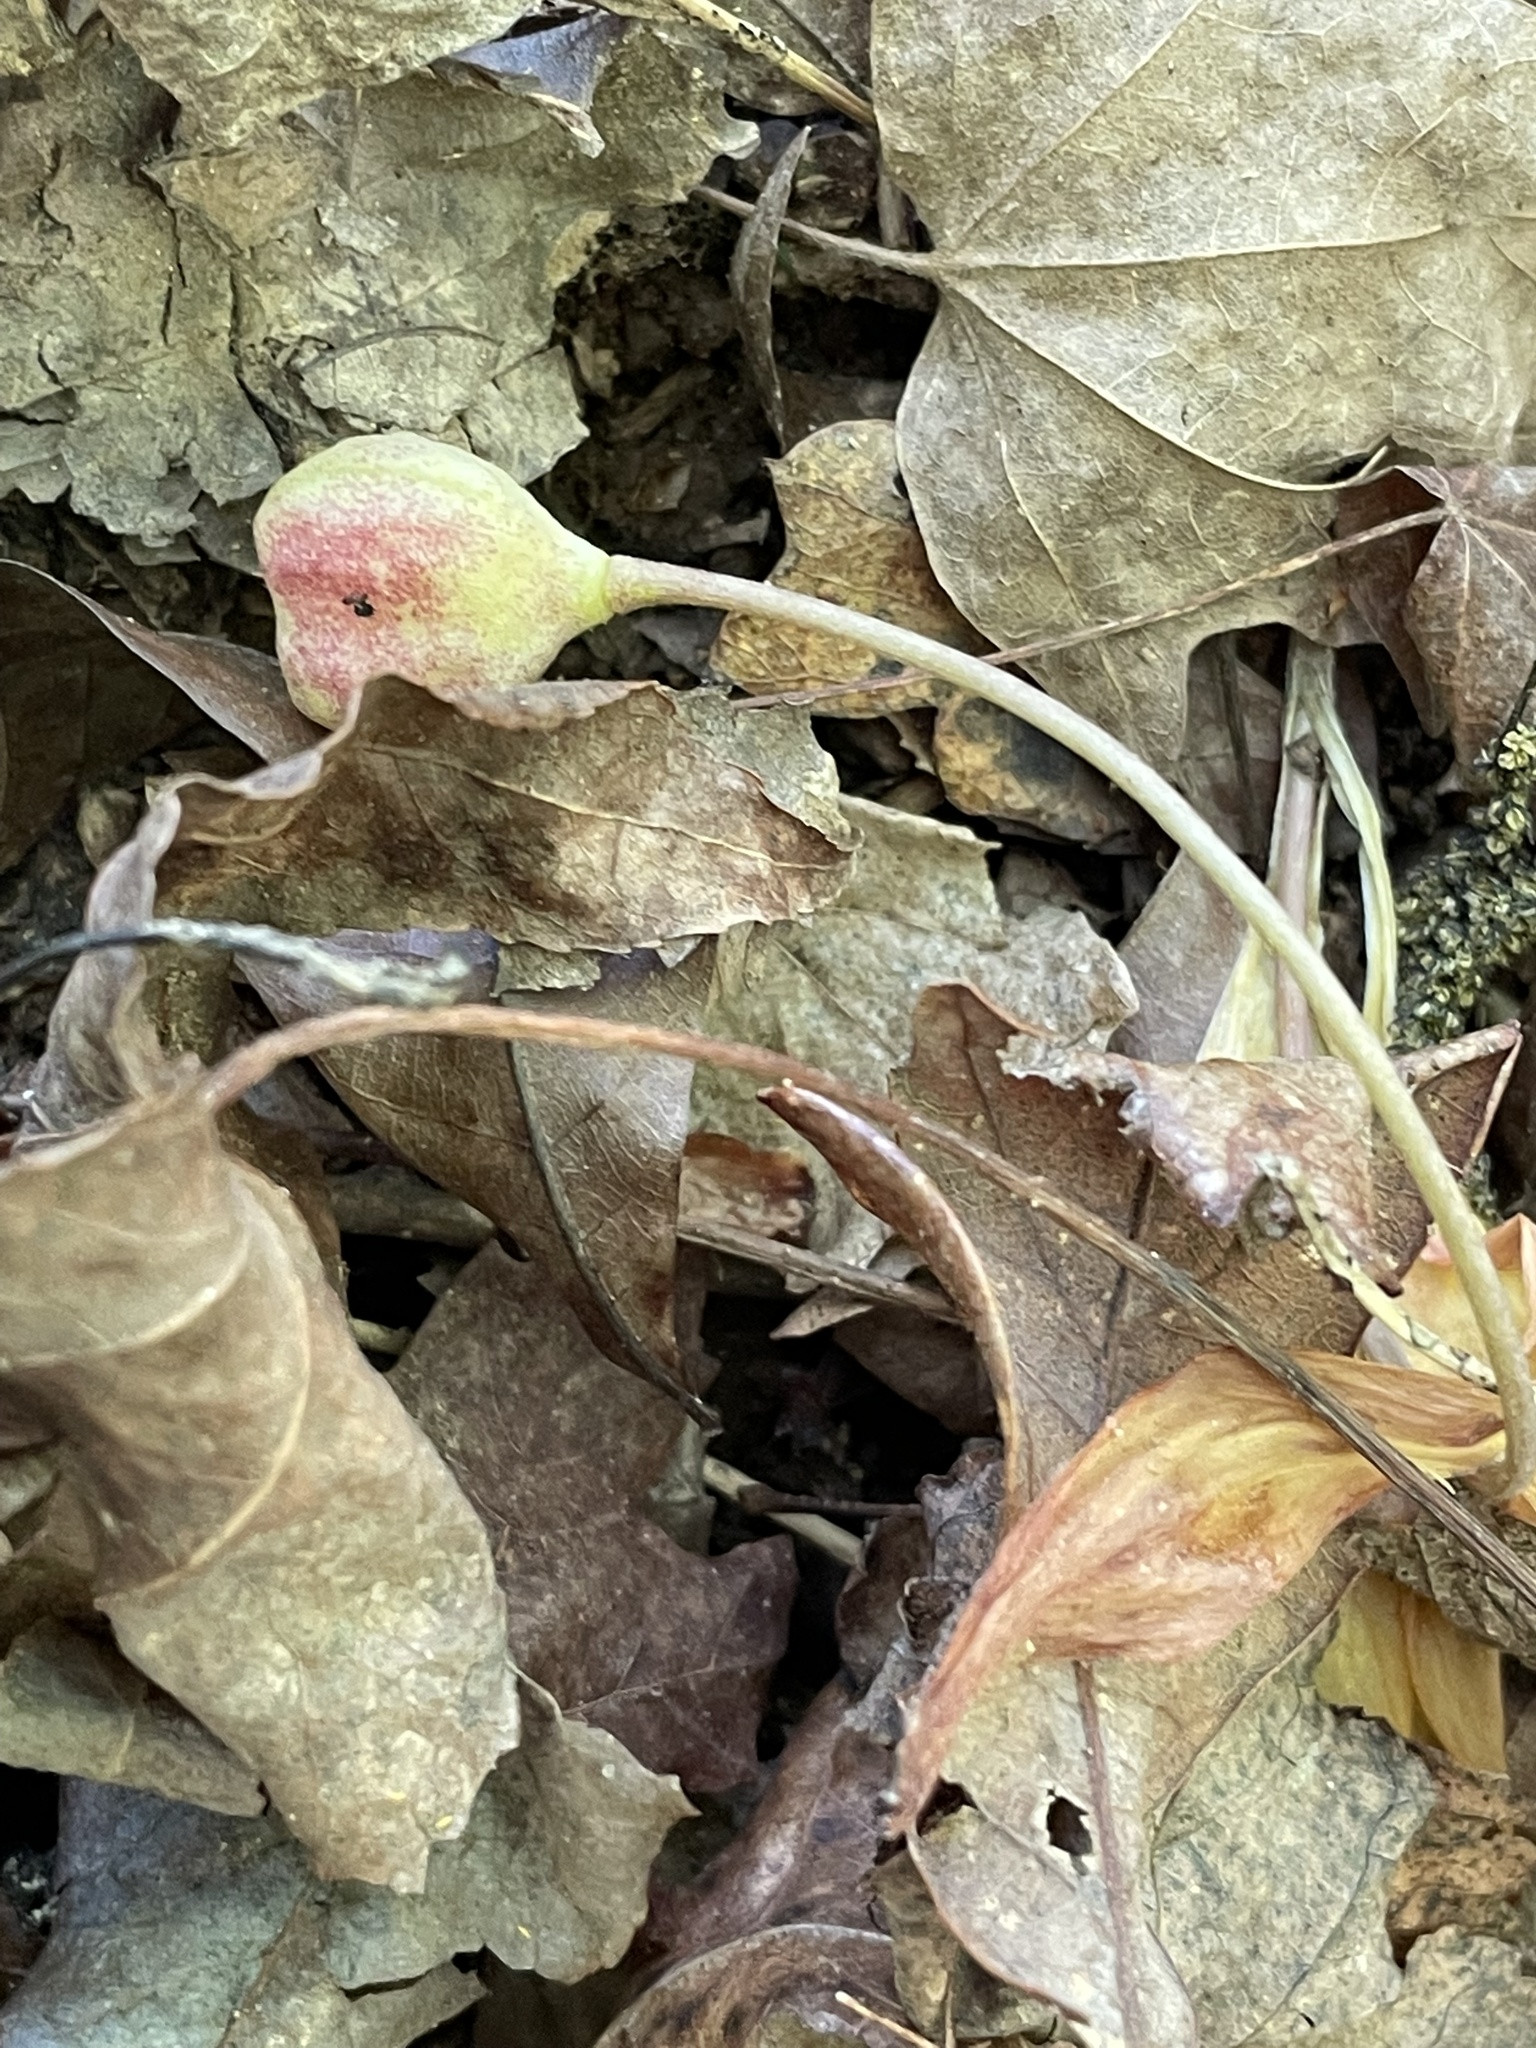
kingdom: Plantae
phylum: Tracheophyta
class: Liliopsida
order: Liliales
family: Liliaceae
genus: Erythronium
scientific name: Erythronium umbilicatum
